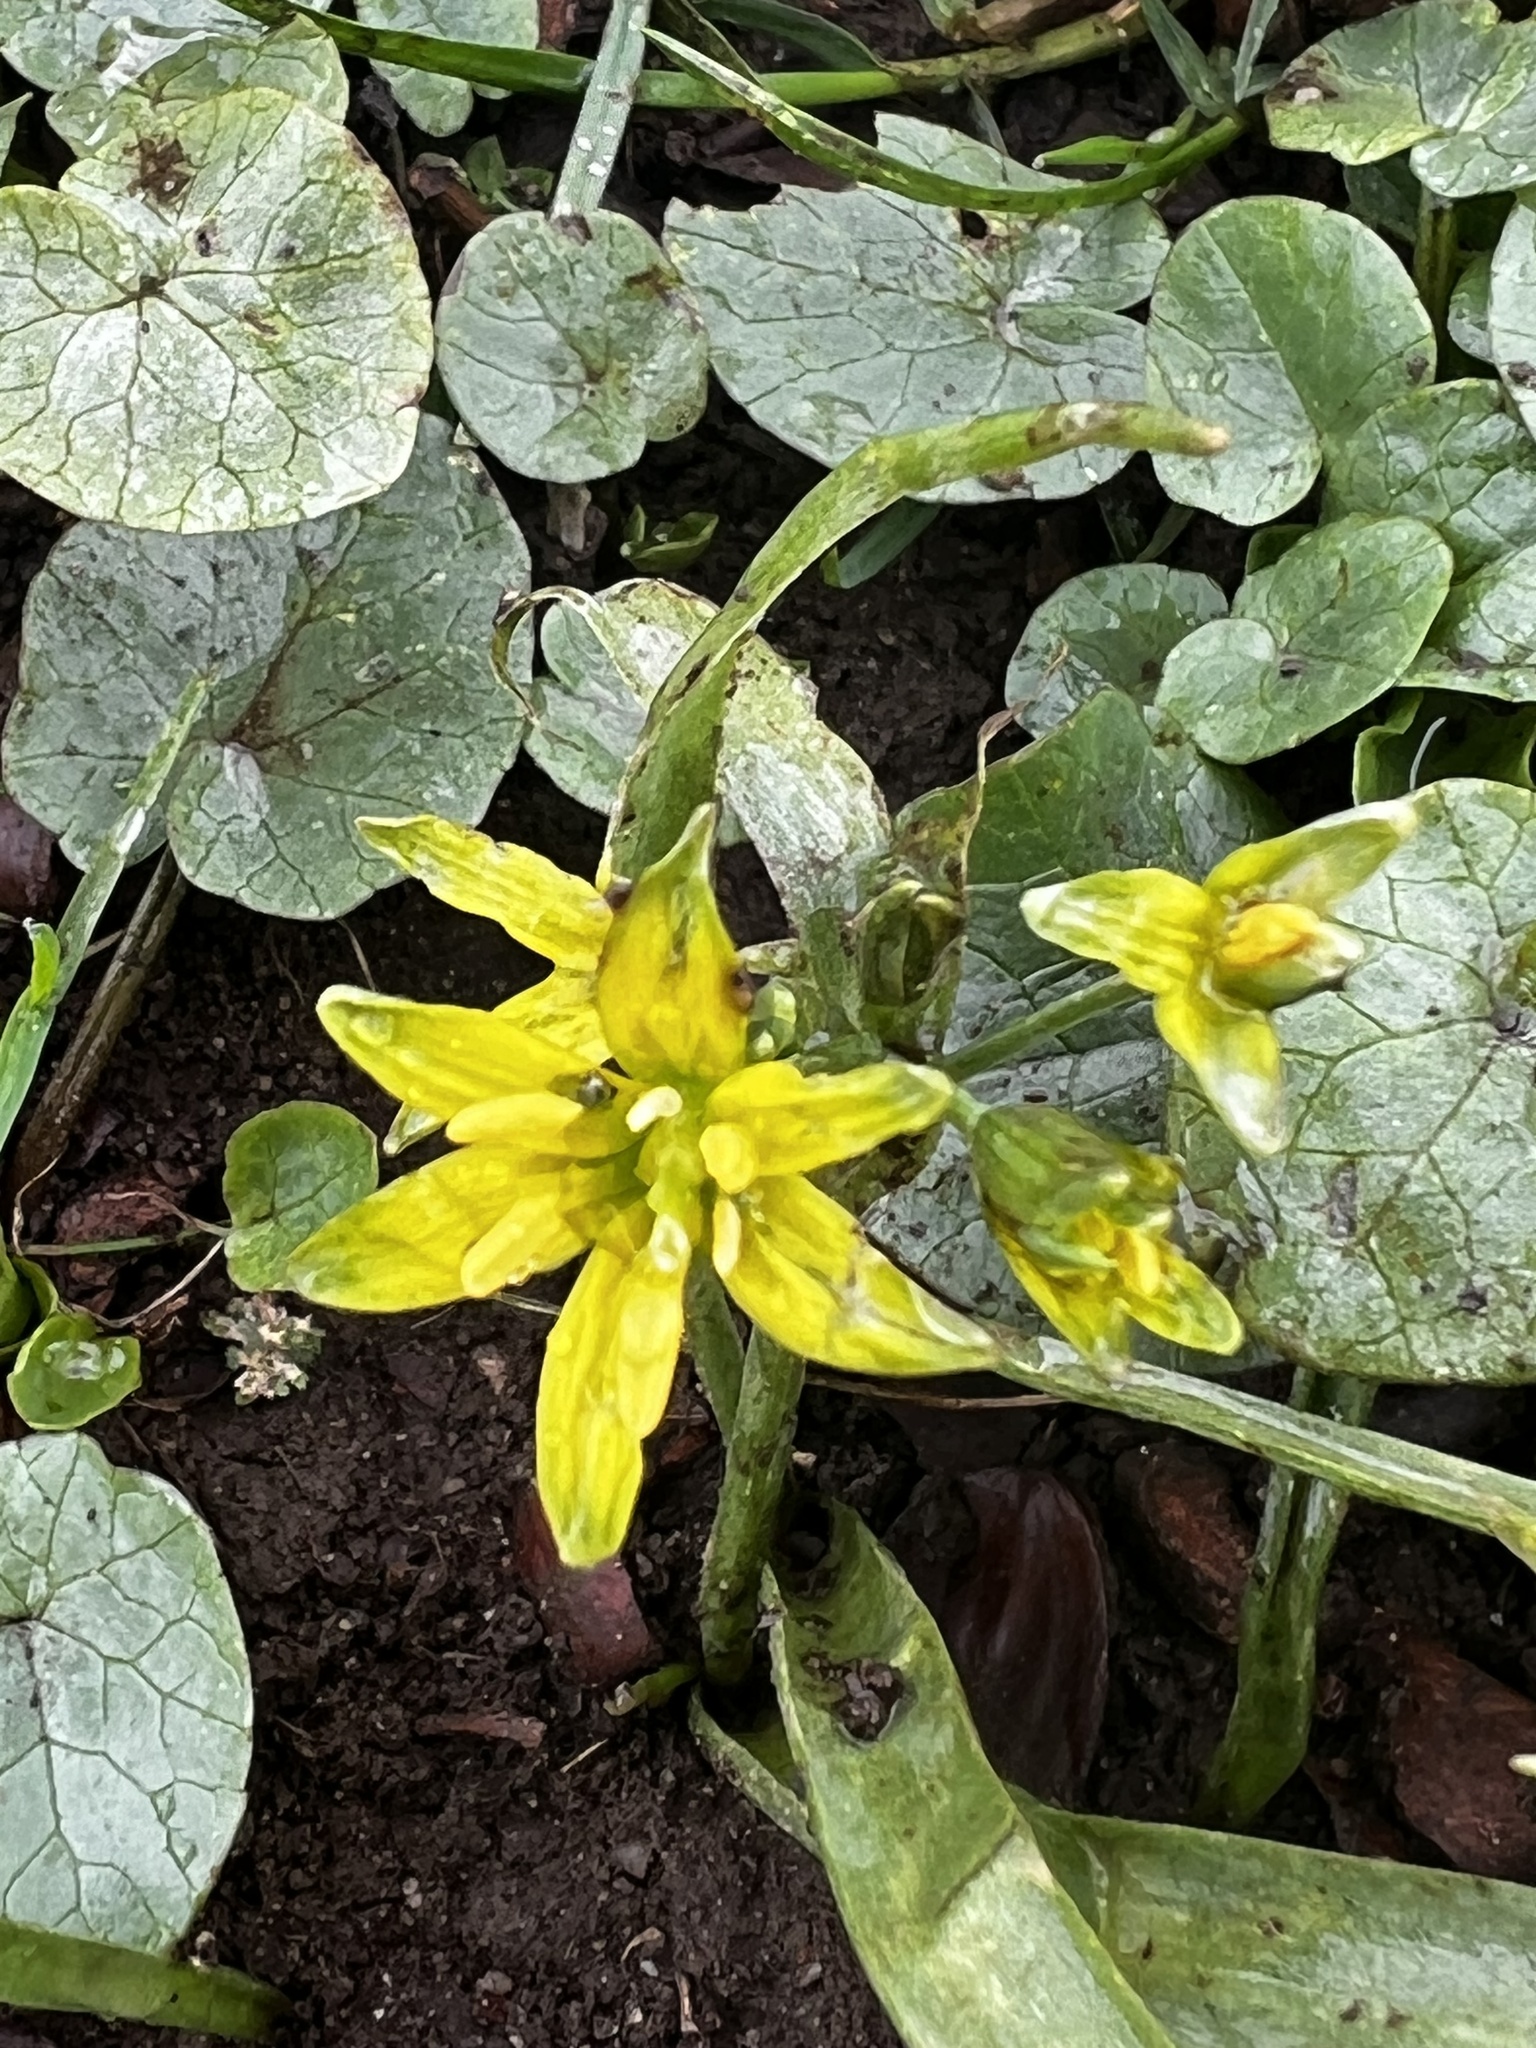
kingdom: Plantae
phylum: Tracheophyta
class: Liliopsida
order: Liliales
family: Liliaceae
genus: Gagea
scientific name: Gagea lutea
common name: Yellow star-of-bethlehem
